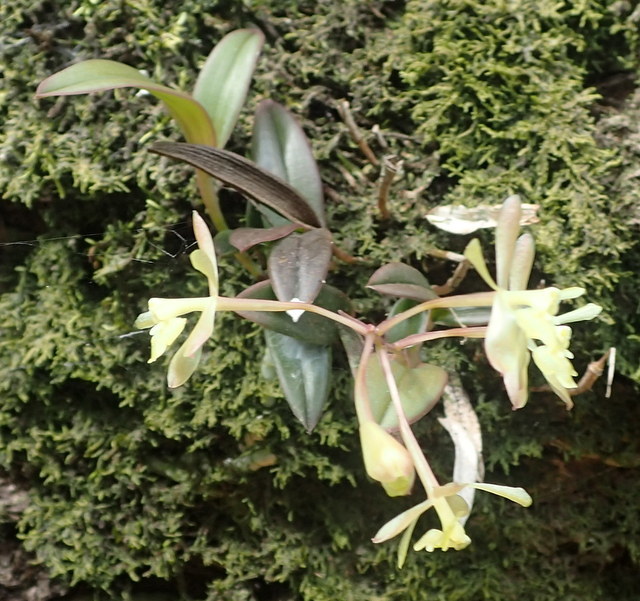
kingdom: Plantae
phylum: Tracheophyta
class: Liliopsida
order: Asparagales
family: Orchidaceae
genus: Epidendrum
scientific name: Epidendrum conopseum
